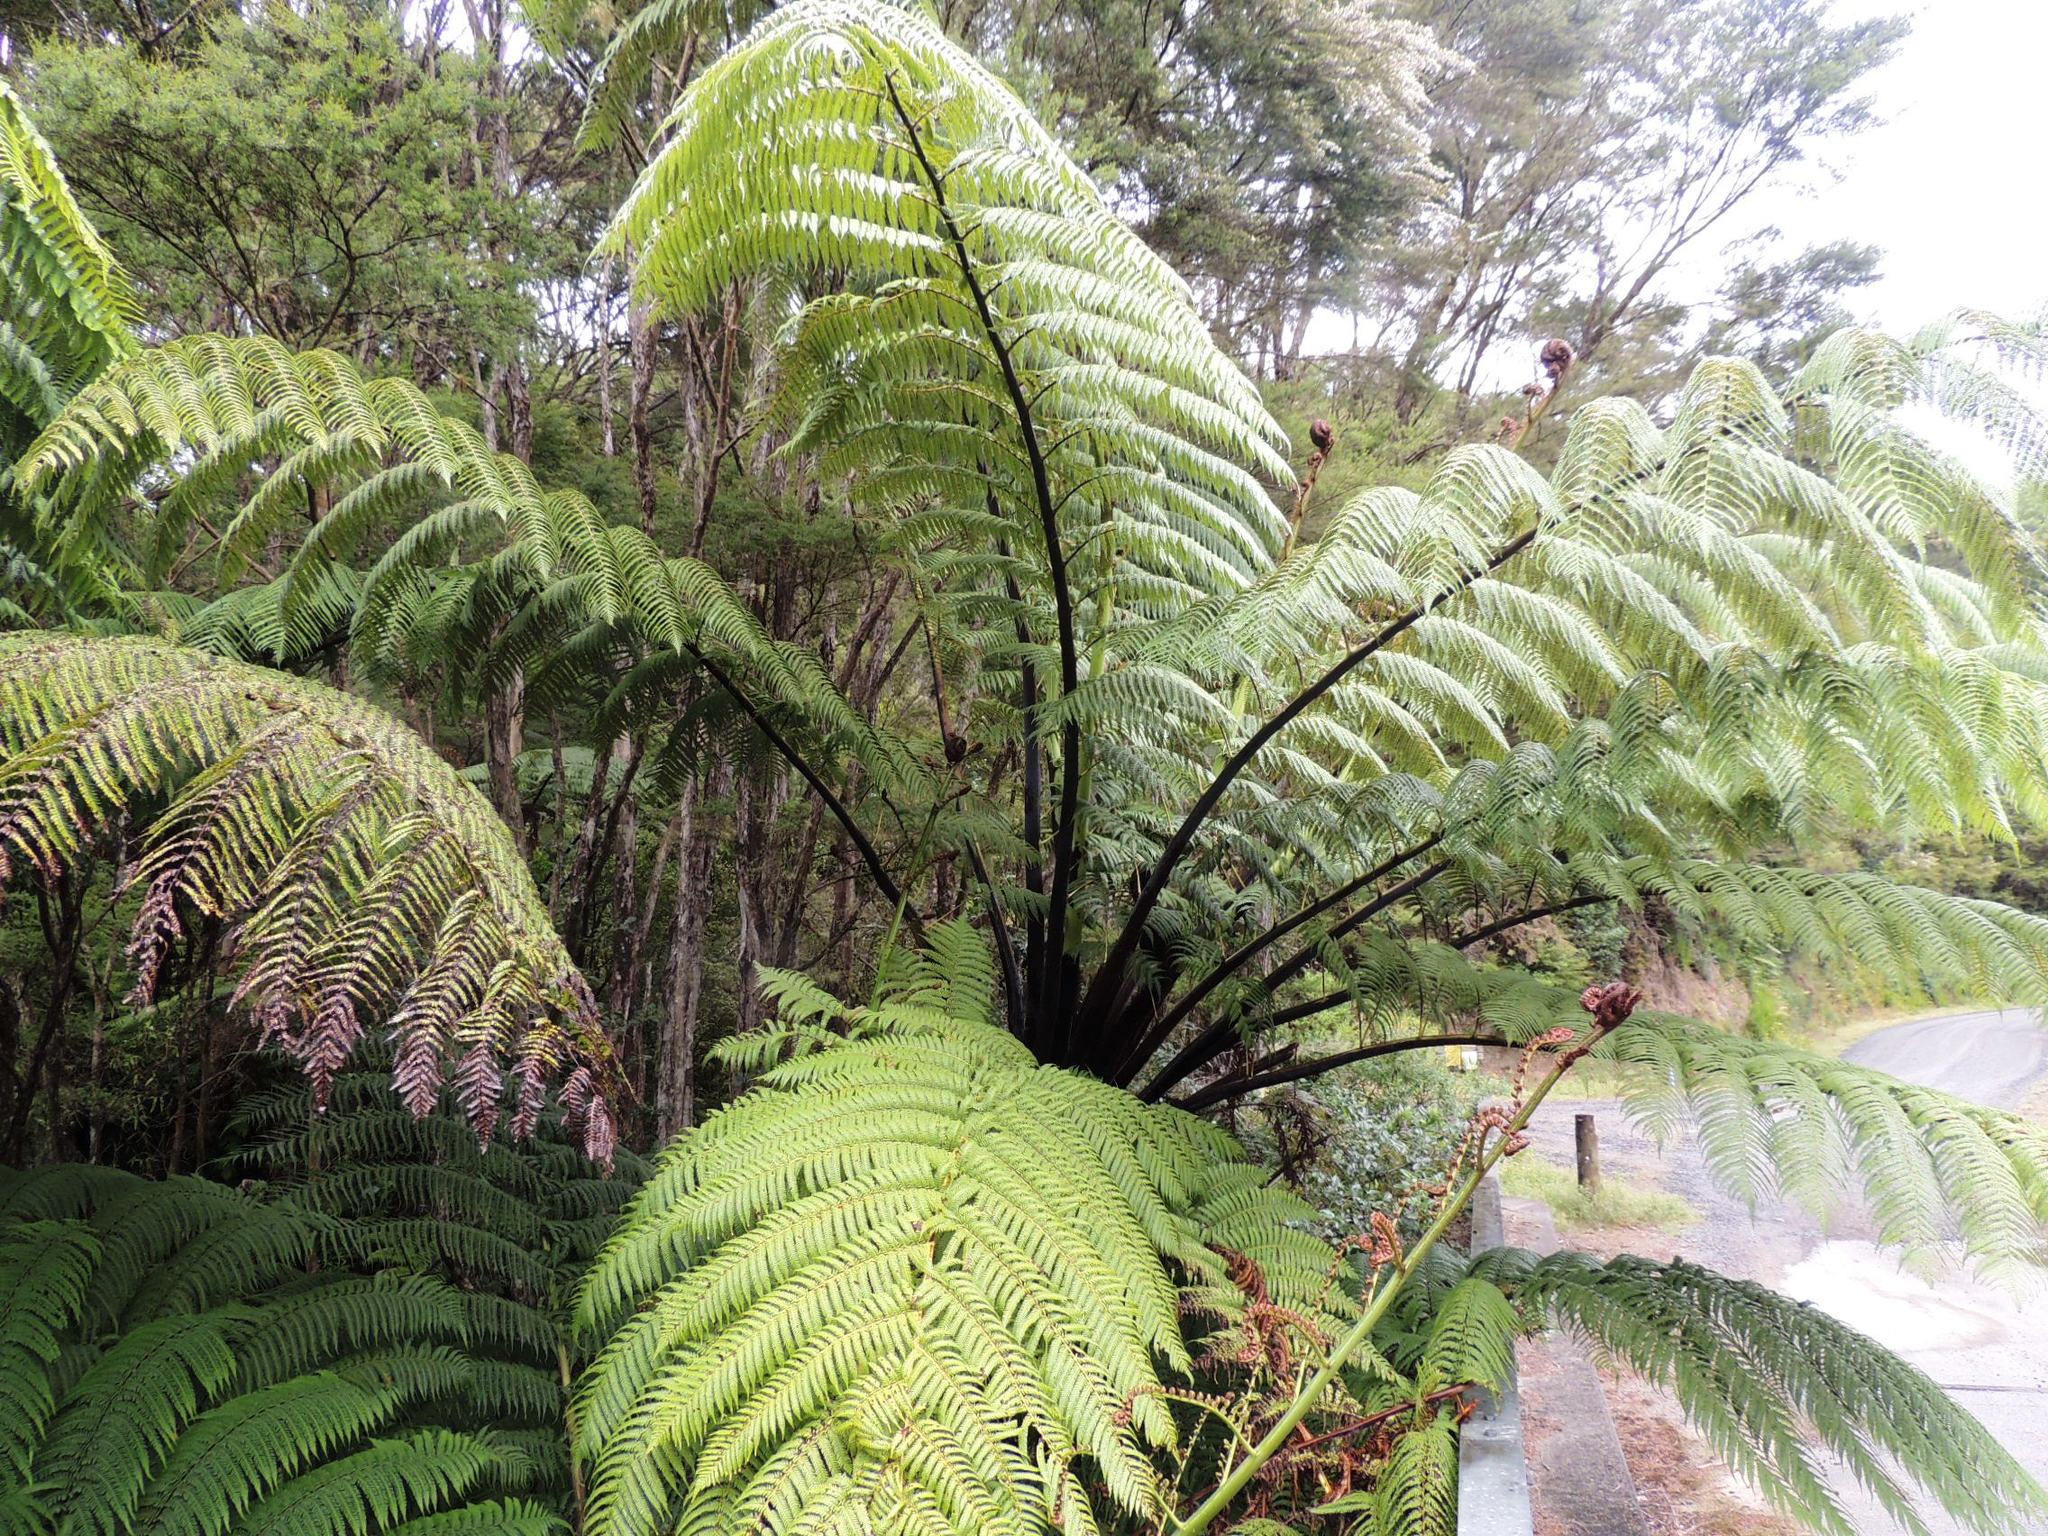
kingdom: Plantae
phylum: Tracheophyta
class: Polypodiopsida
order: Cyatheales
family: Cyatheaceae
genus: Sphaeropteris
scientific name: Sphaeropteris medullaris
